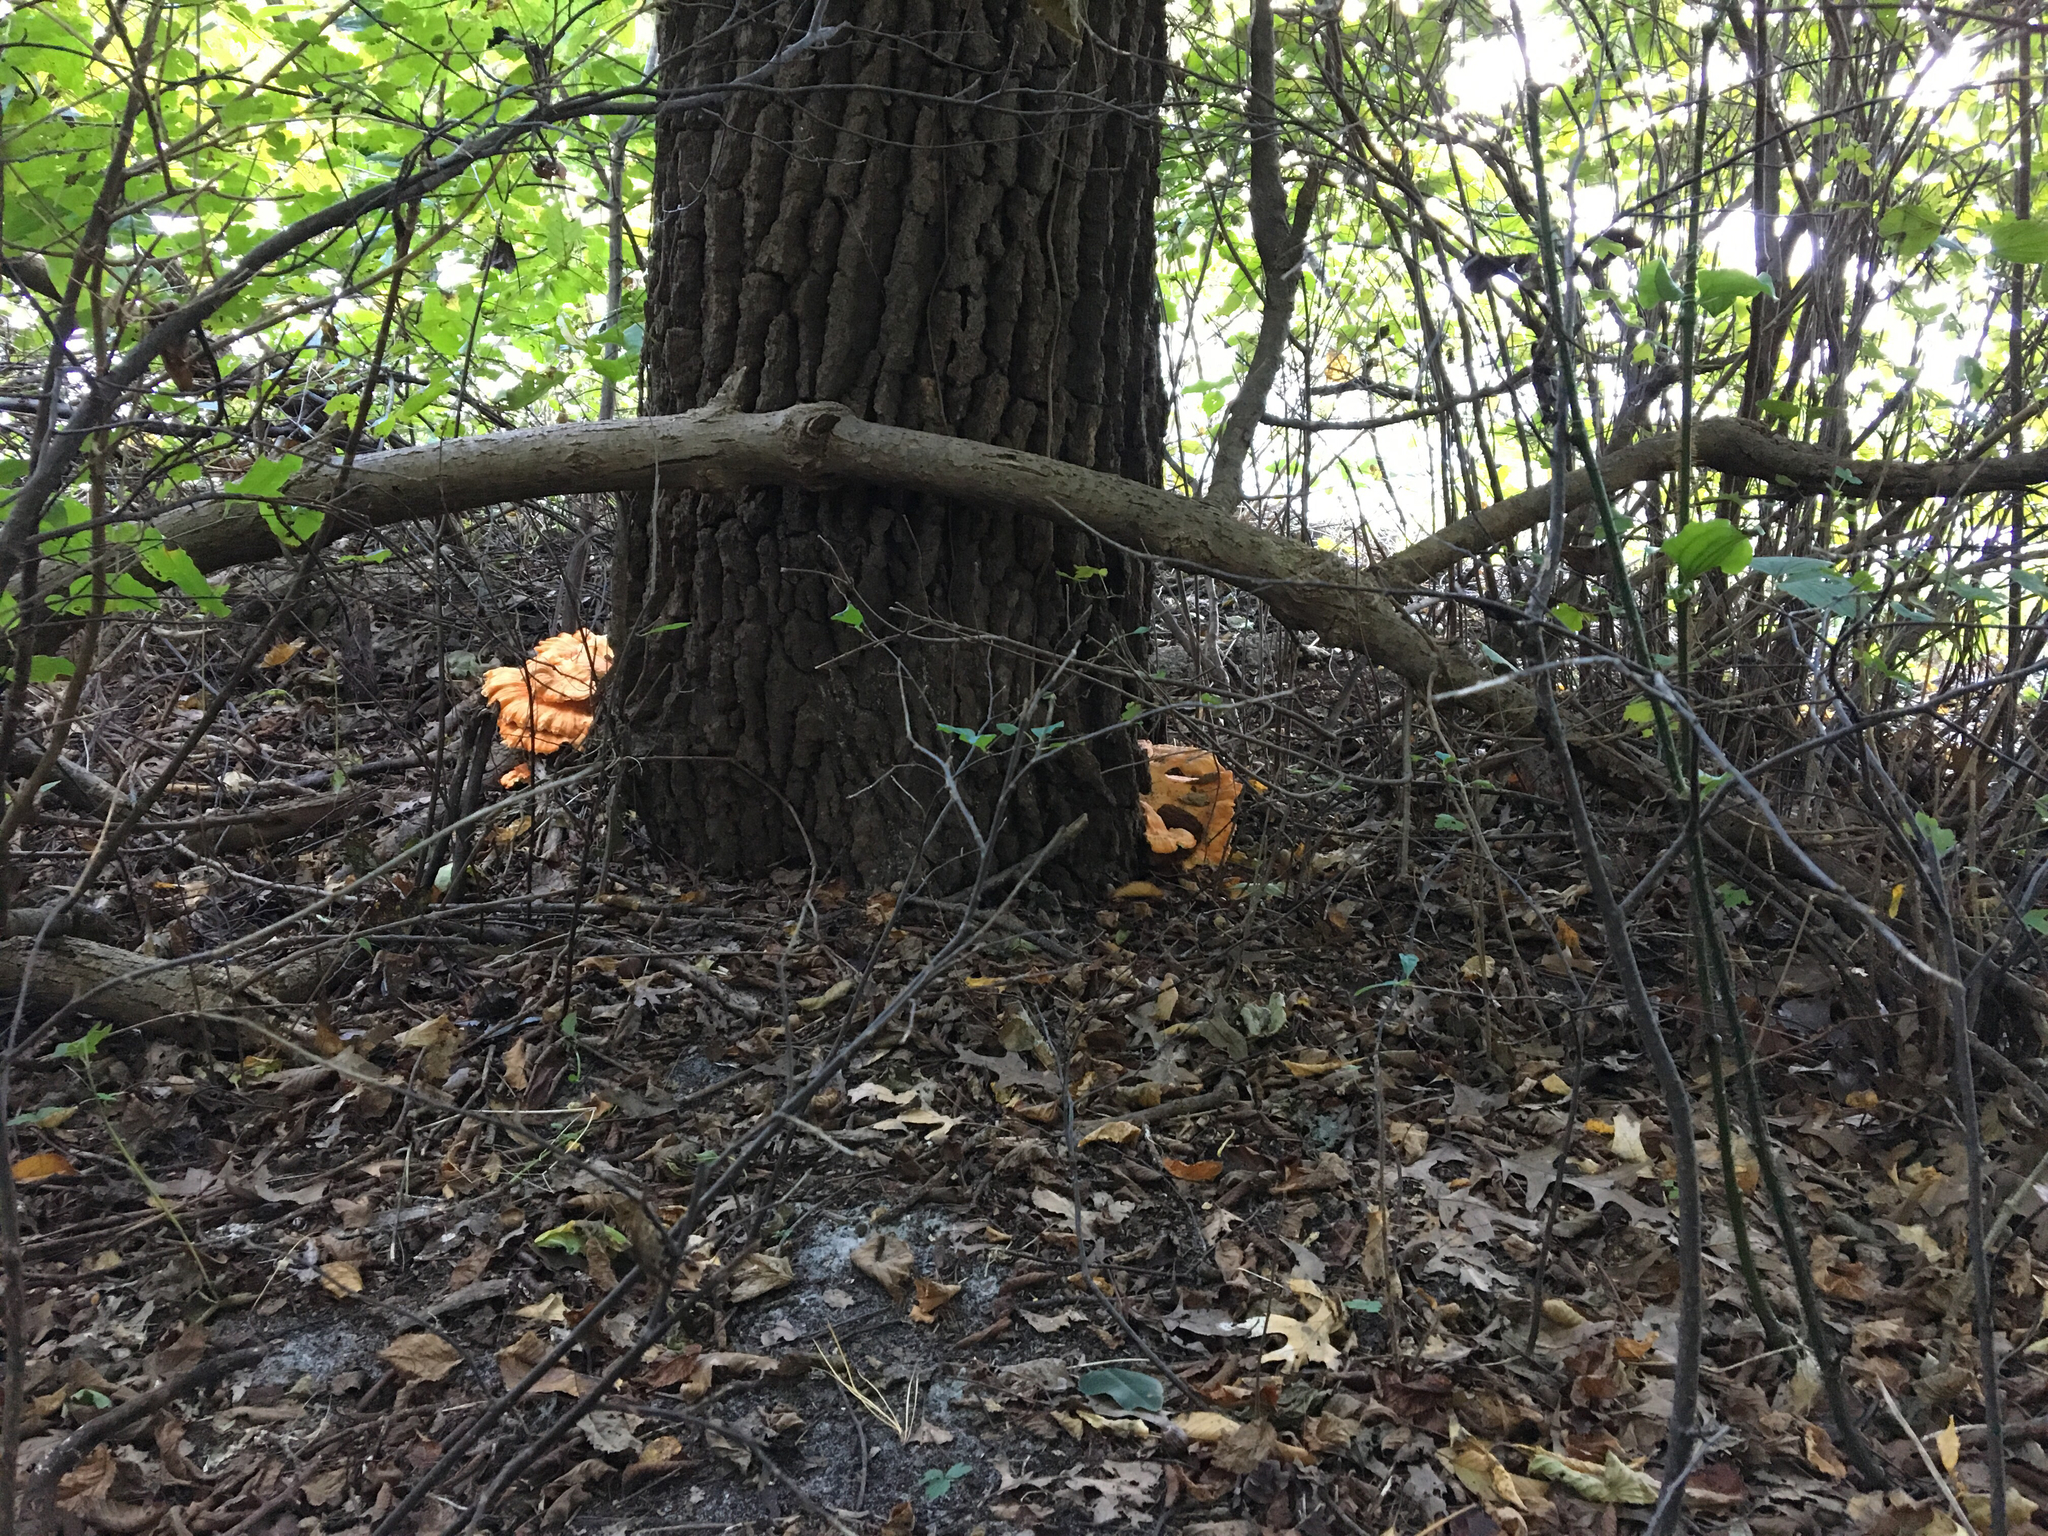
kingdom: Fungi
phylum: Basidiomycota
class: Agaricomycetes
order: Polyporales
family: Laetiporaceae
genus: Laetiporus
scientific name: Laetiporus sulphureus
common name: Chicken of the woods
